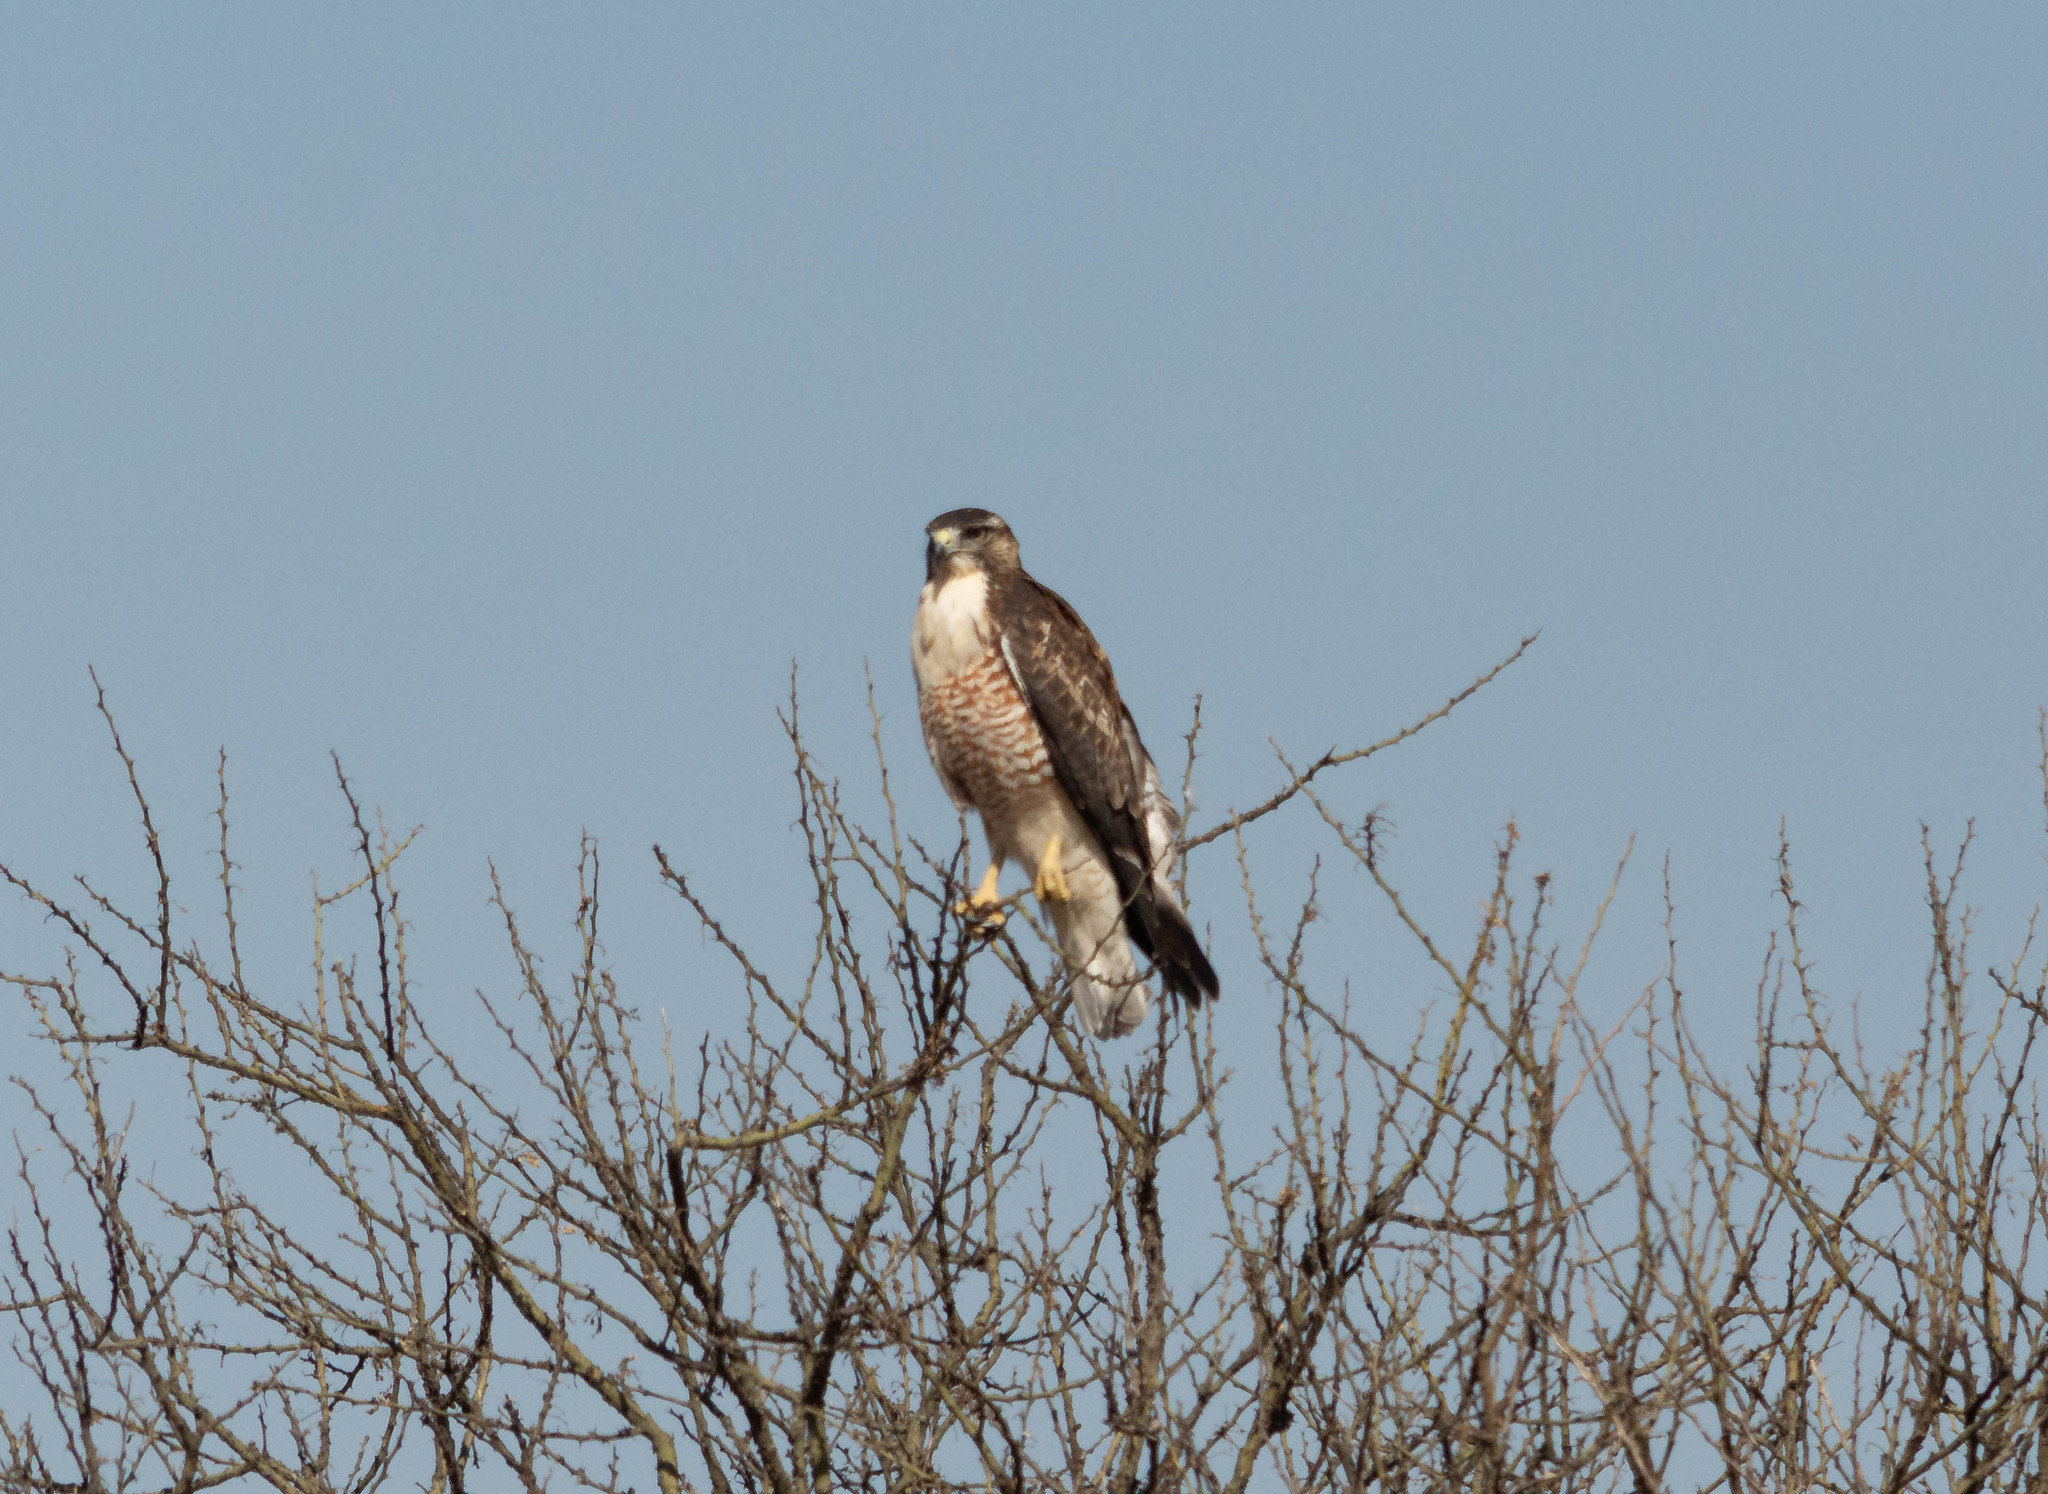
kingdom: Animalia
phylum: Chordata
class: Aves
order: Accipitriformes
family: Accipitridae
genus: Buteo
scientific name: Buteo polyosoma
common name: Variable hawk
